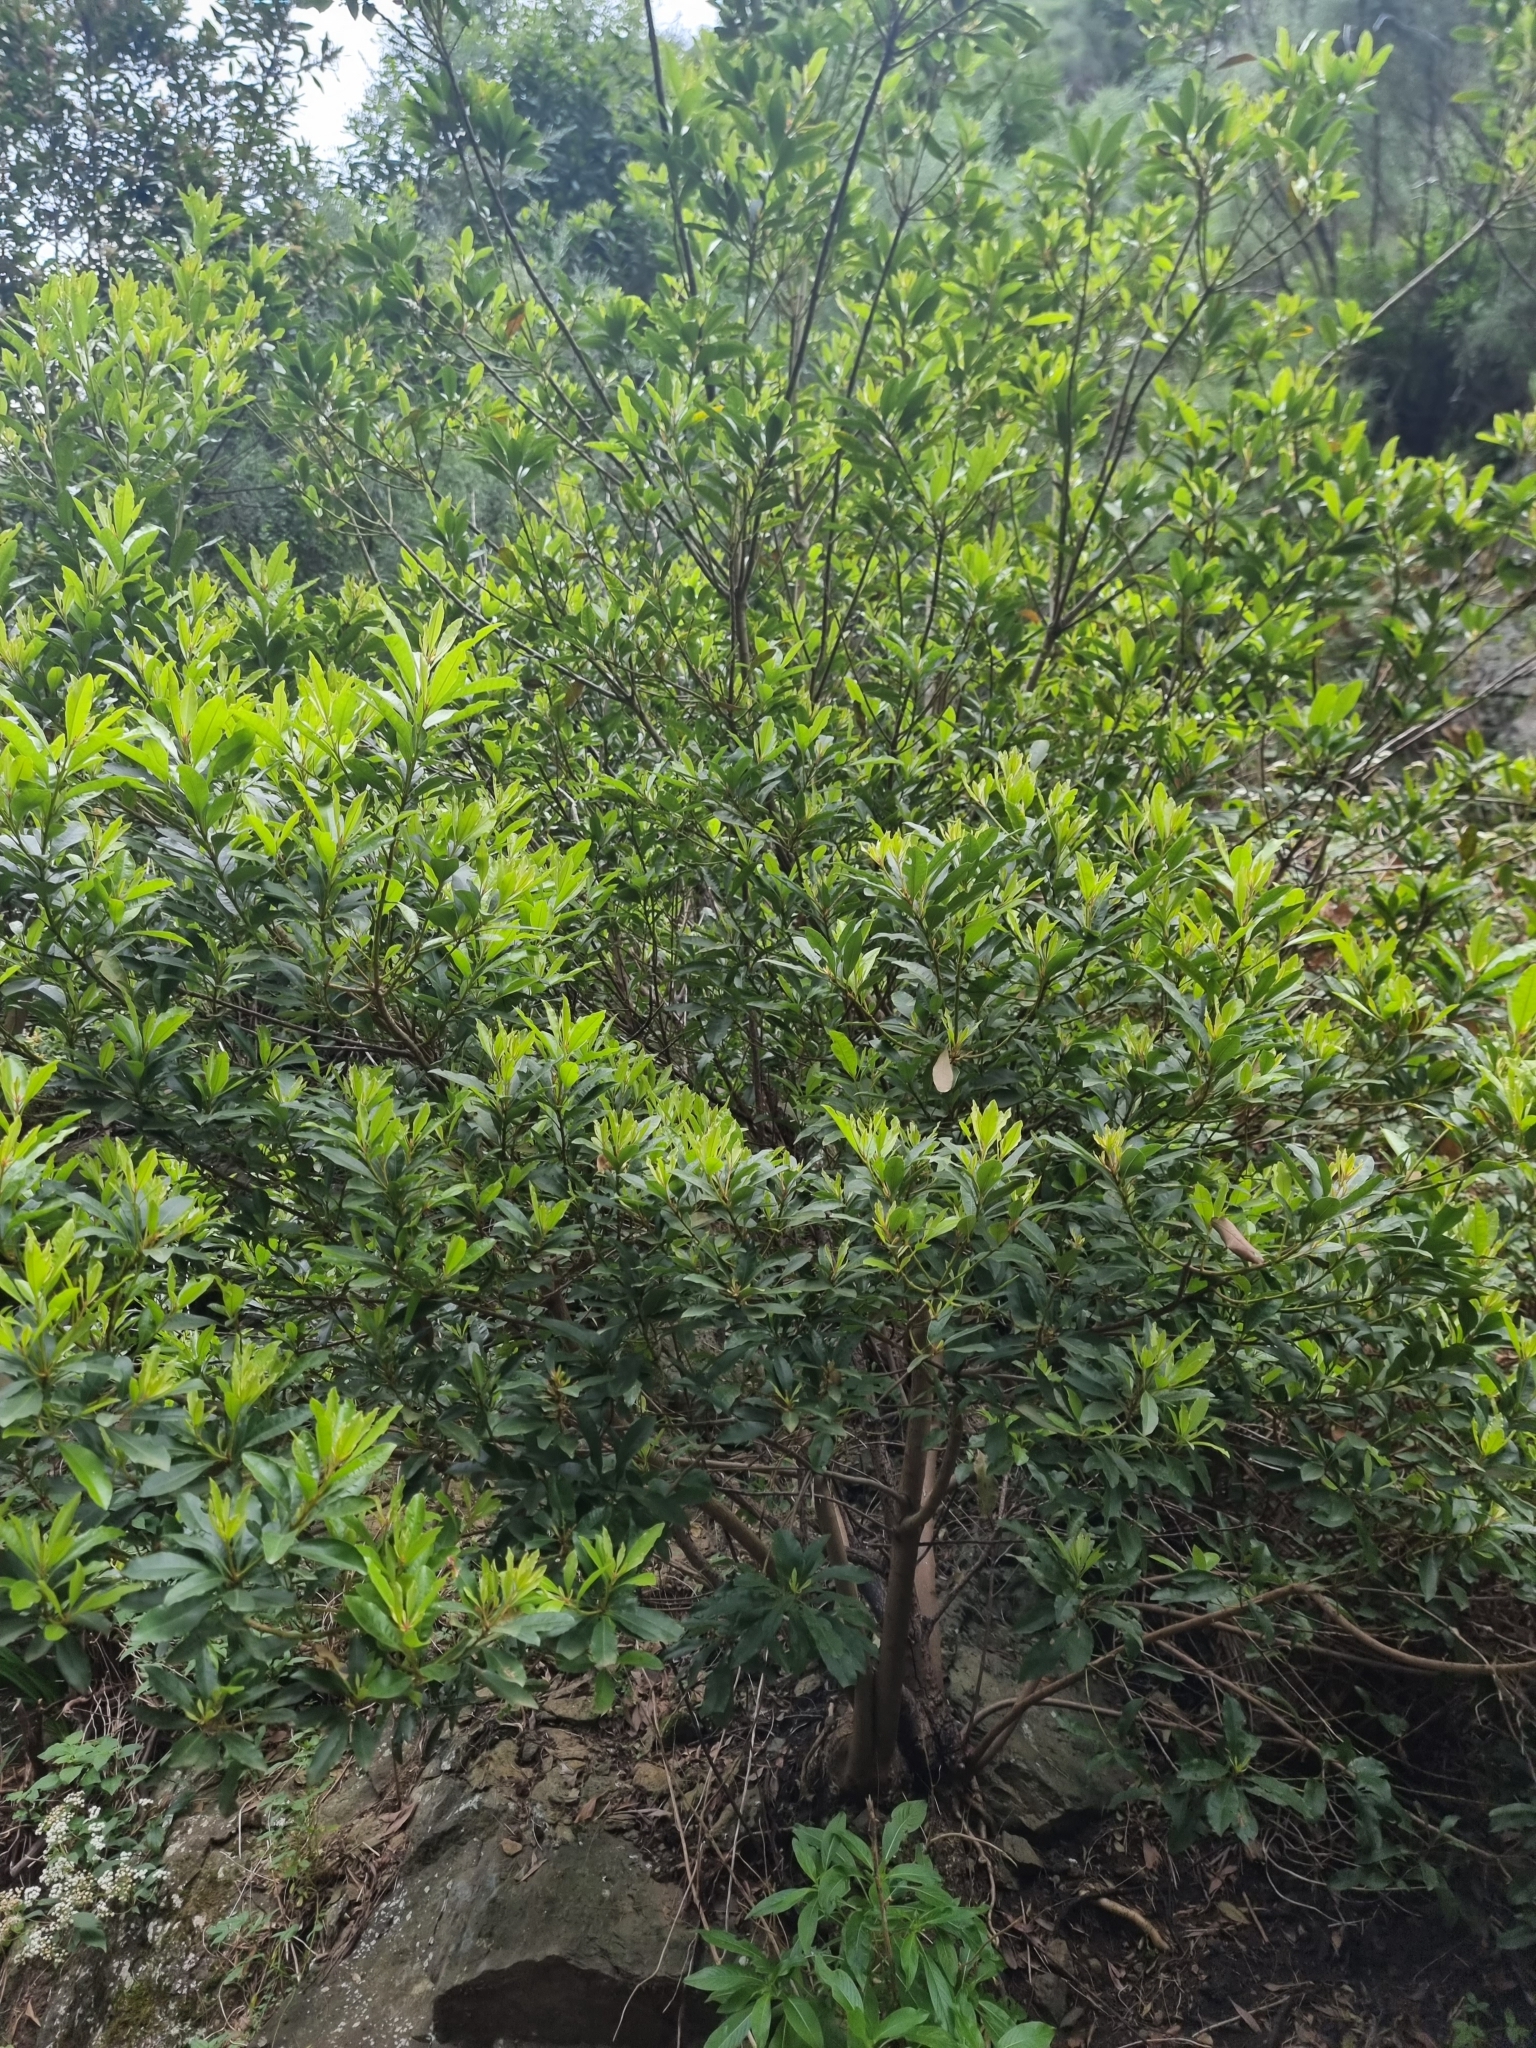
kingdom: Plantae
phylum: Tracheophyta
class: Magnoliopsida
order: Fagales
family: Myricaceae
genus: Morella
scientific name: Morella faya
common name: Firetree
